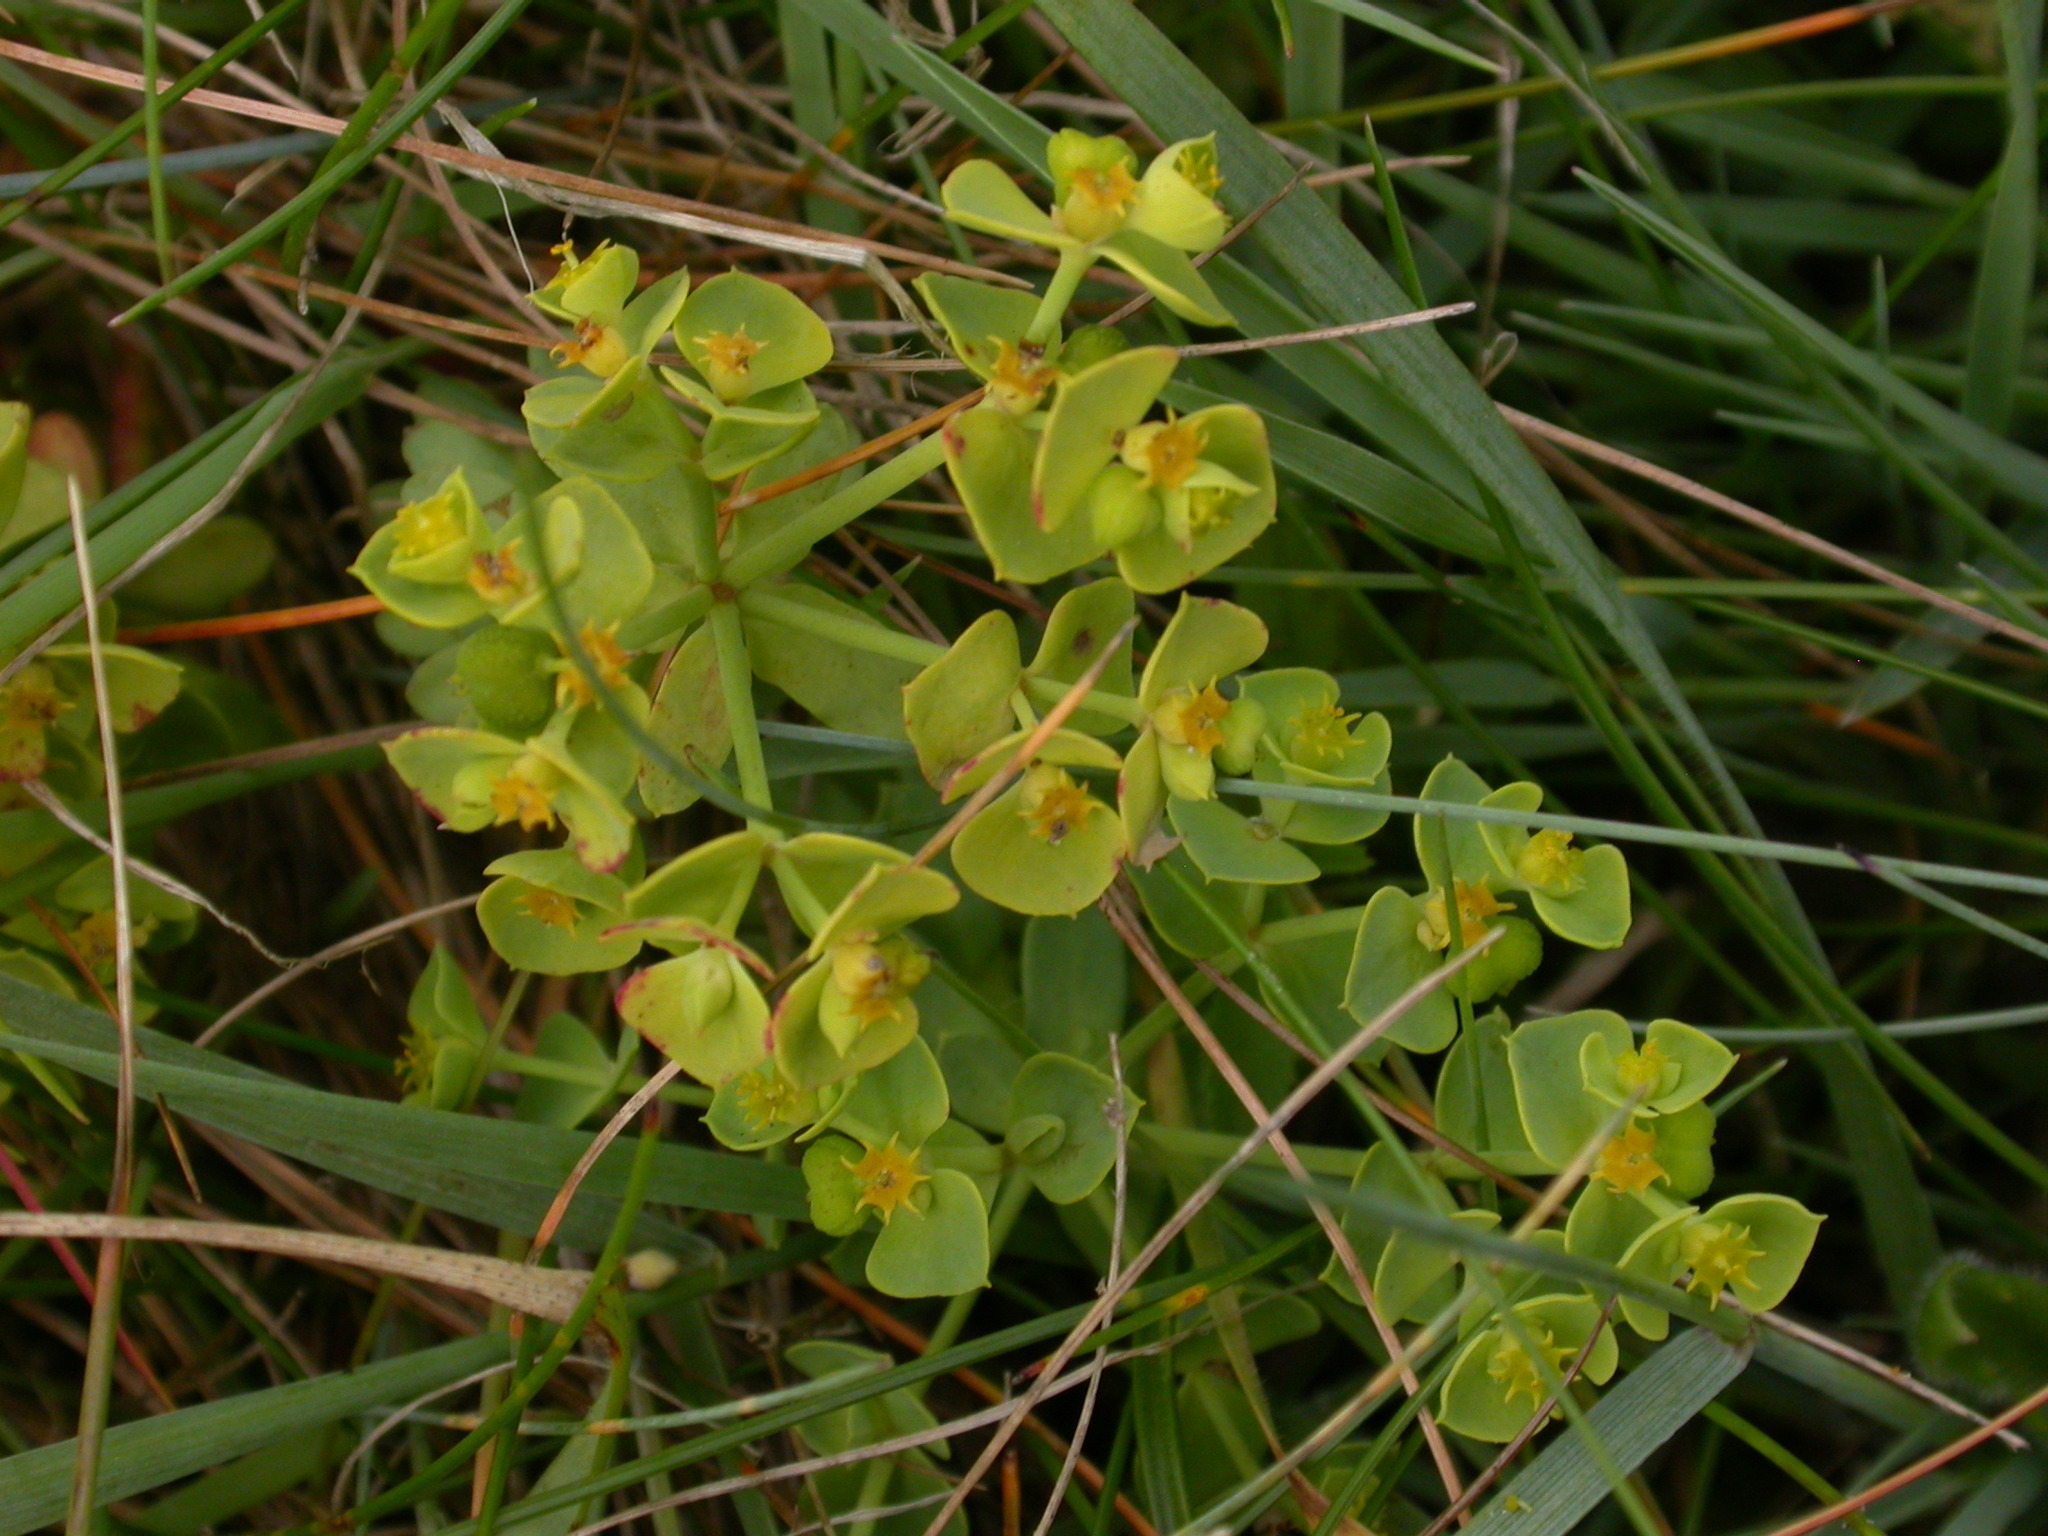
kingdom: Plantae
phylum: Tracheophyta
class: Magnoliopsida
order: Malpighiales
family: Euphorbiaceae
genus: Euphorbia
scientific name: Euphorbia paralias
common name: Sea spurge
